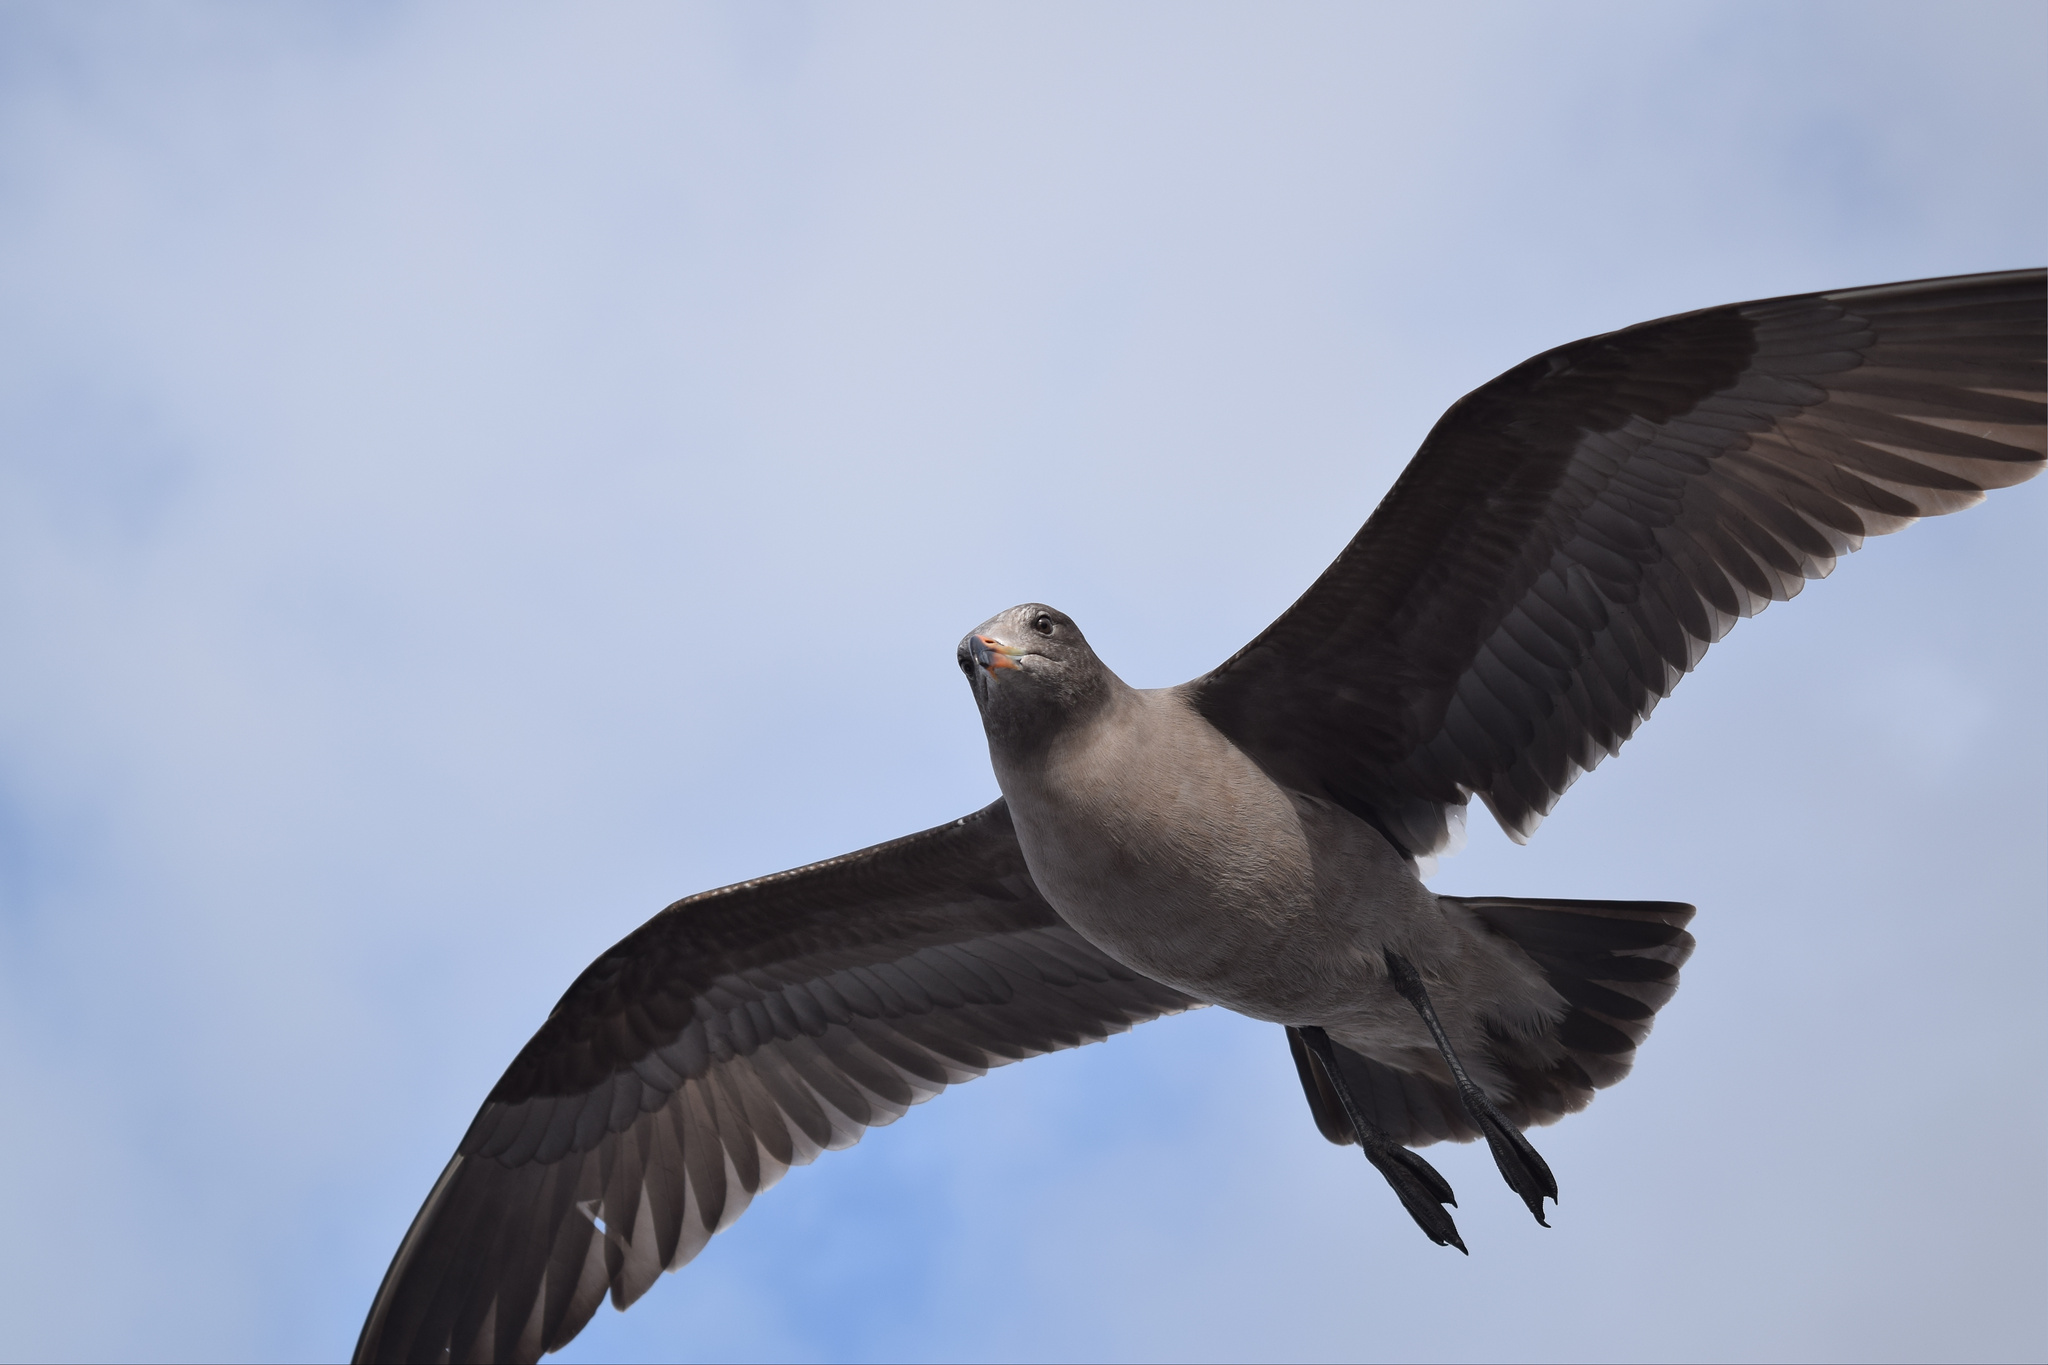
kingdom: Animalia
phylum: Chordata
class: Aves
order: Charadriiformes
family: Laridae
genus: Larus
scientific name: Larus heermanni
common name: Heermann's gull
